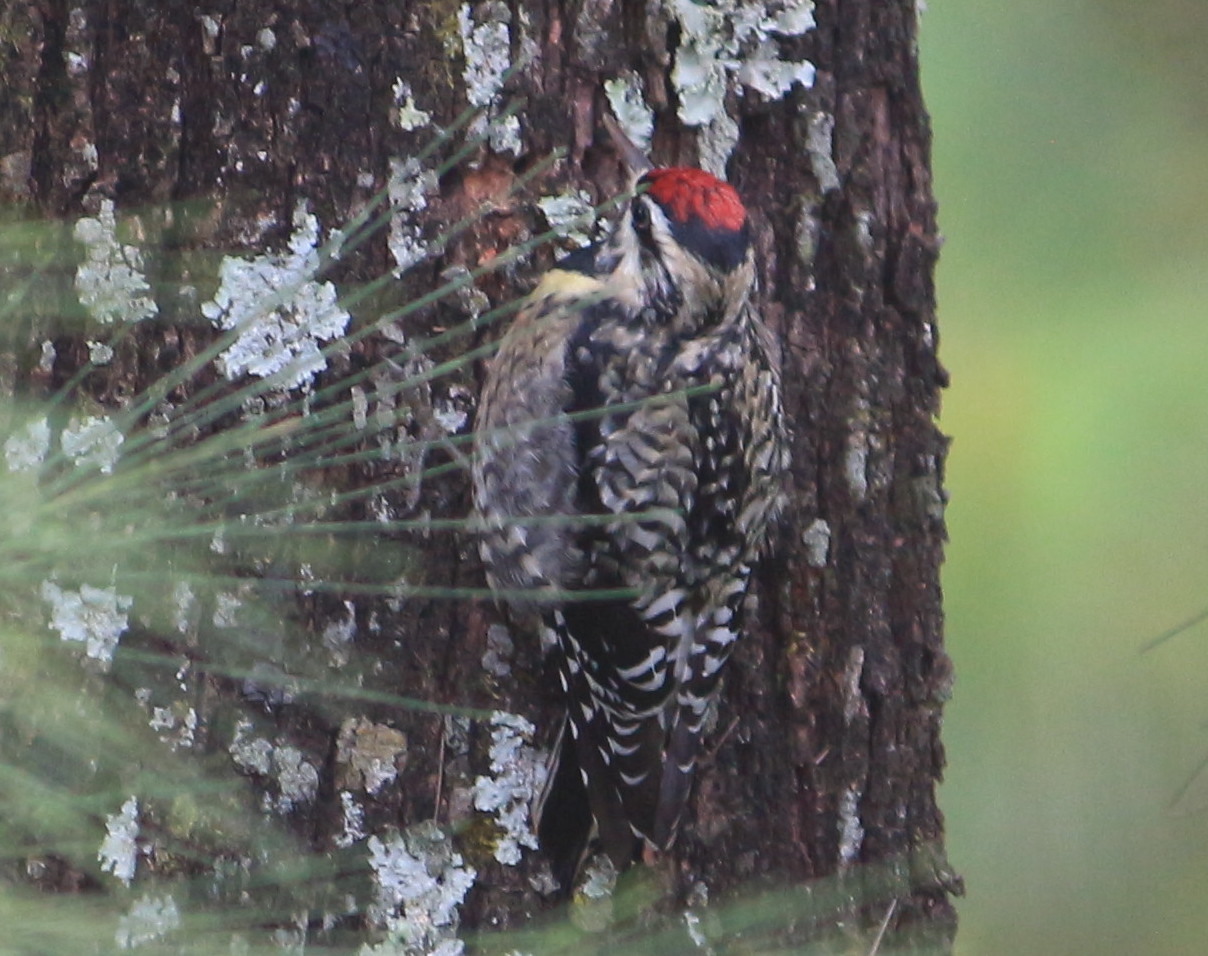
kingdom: Animalia
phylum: Chordata
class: Aves
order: Piciformes
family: Picidae
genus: Sphyrapicus
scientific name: Sphyrapicus varius
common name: Yellow-bellied sapsucker
